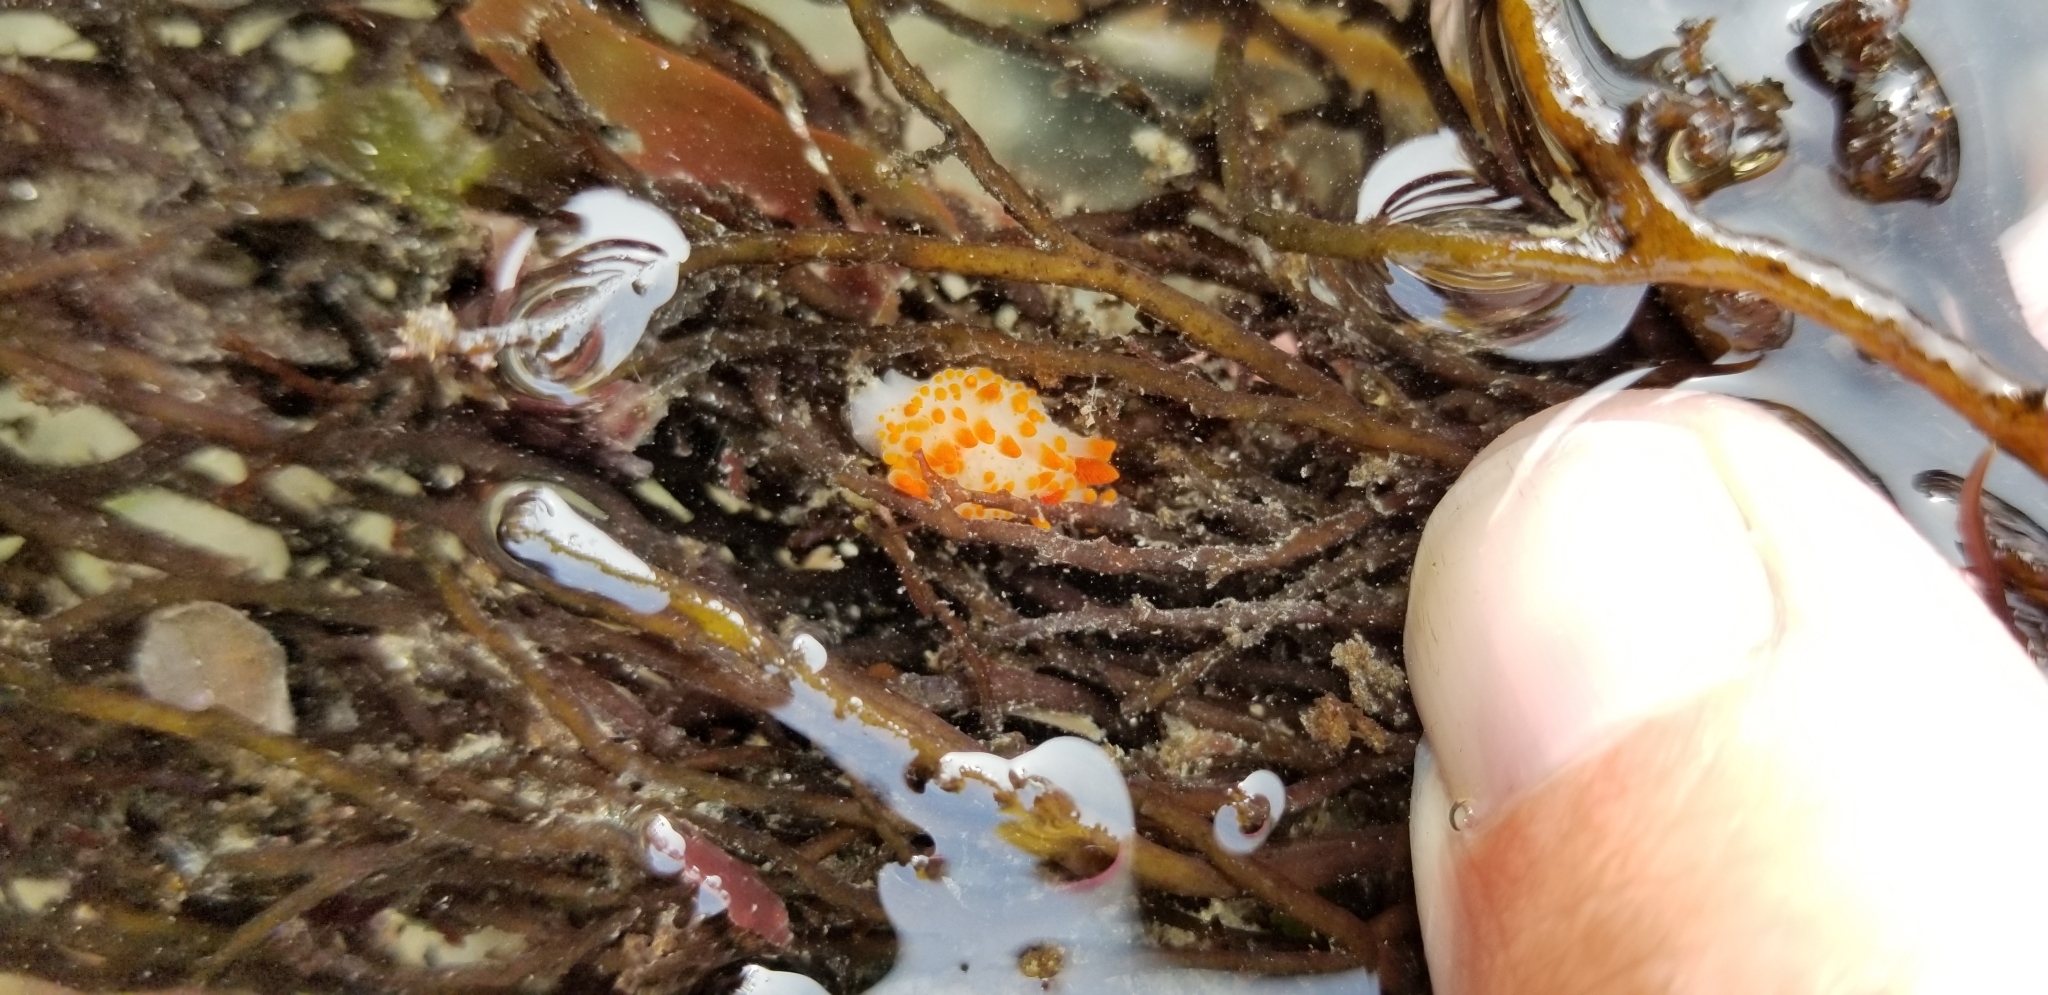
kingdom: Animalia
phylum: Mollusca
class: Gastropoda
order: Nudibranchia
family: Polyceridae
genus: Triopha
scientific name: Triopha catalinae
